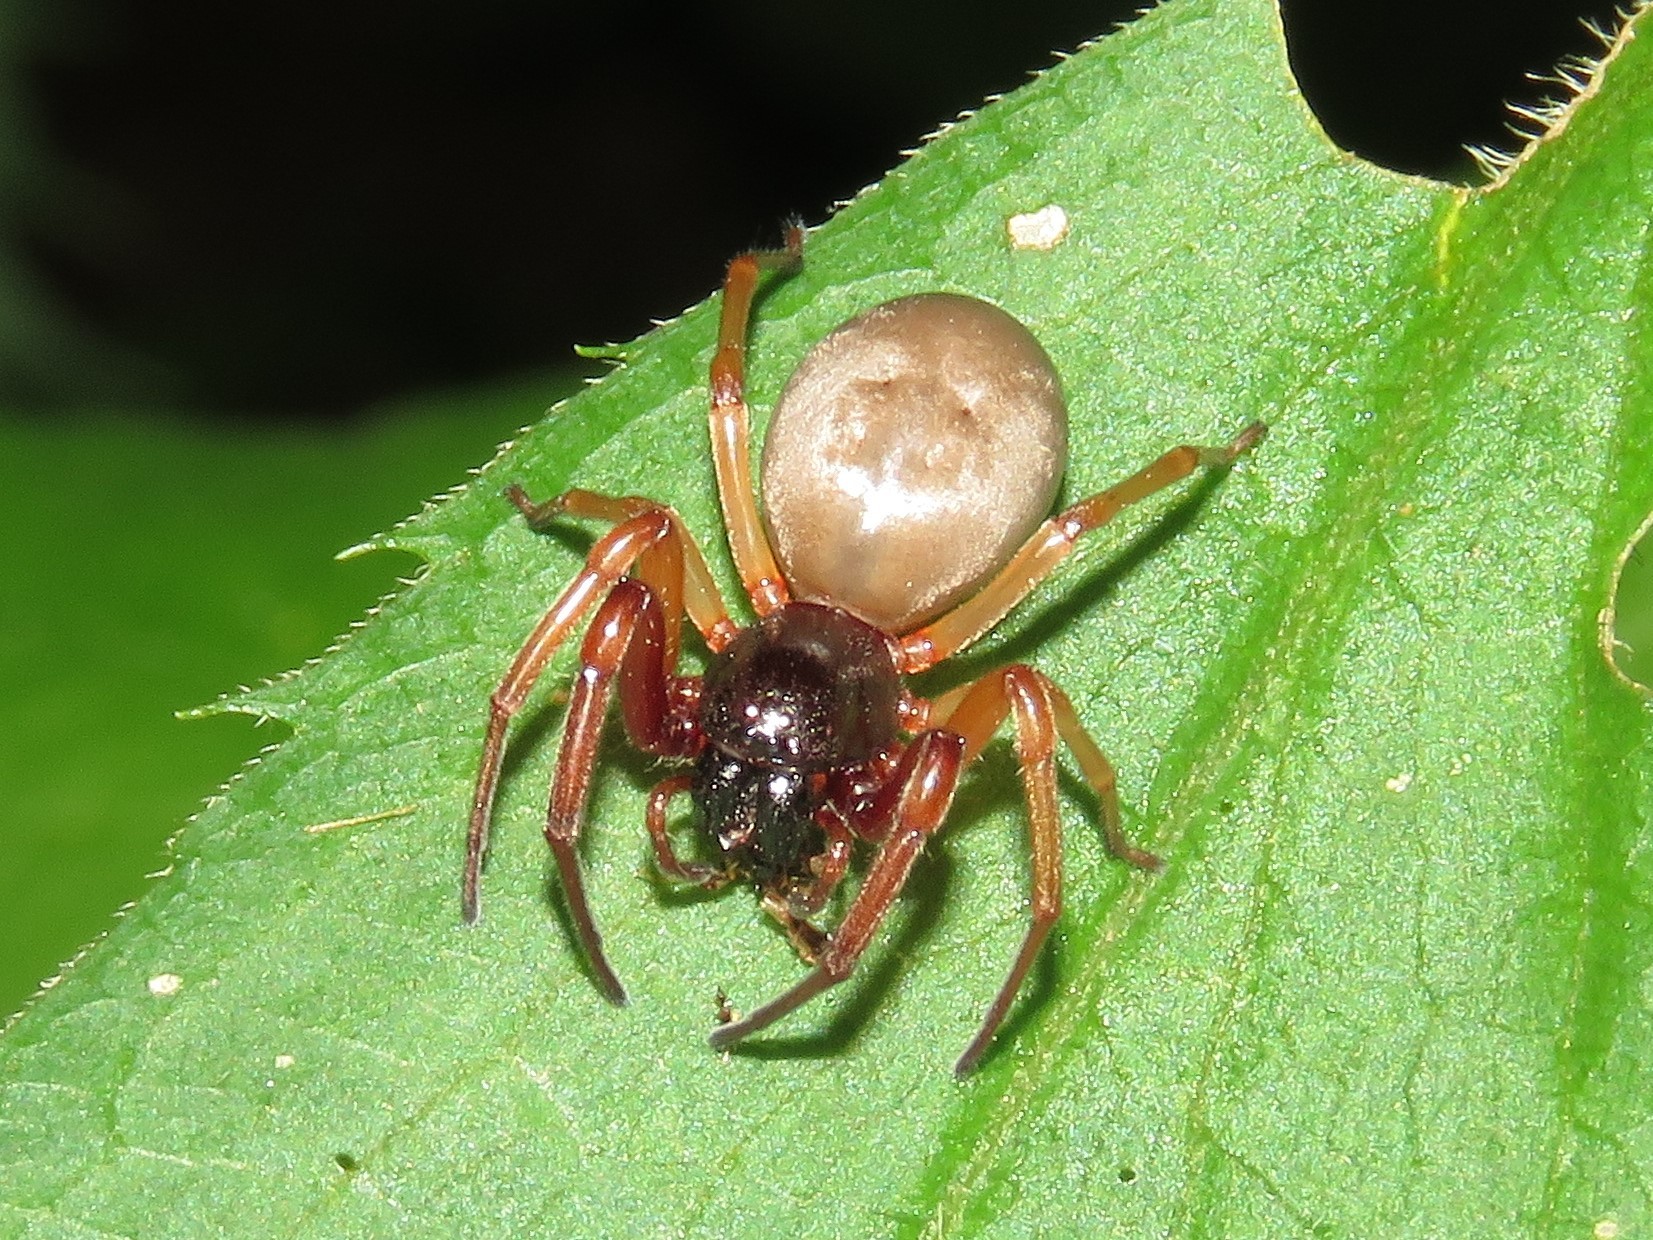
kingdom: Animalia
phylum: Arthropoda
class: Arachnida
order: Araneae
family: Trachelidae
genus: Trachelas
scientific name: Trachelas tranquillus
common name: Broad-faced sac spider
